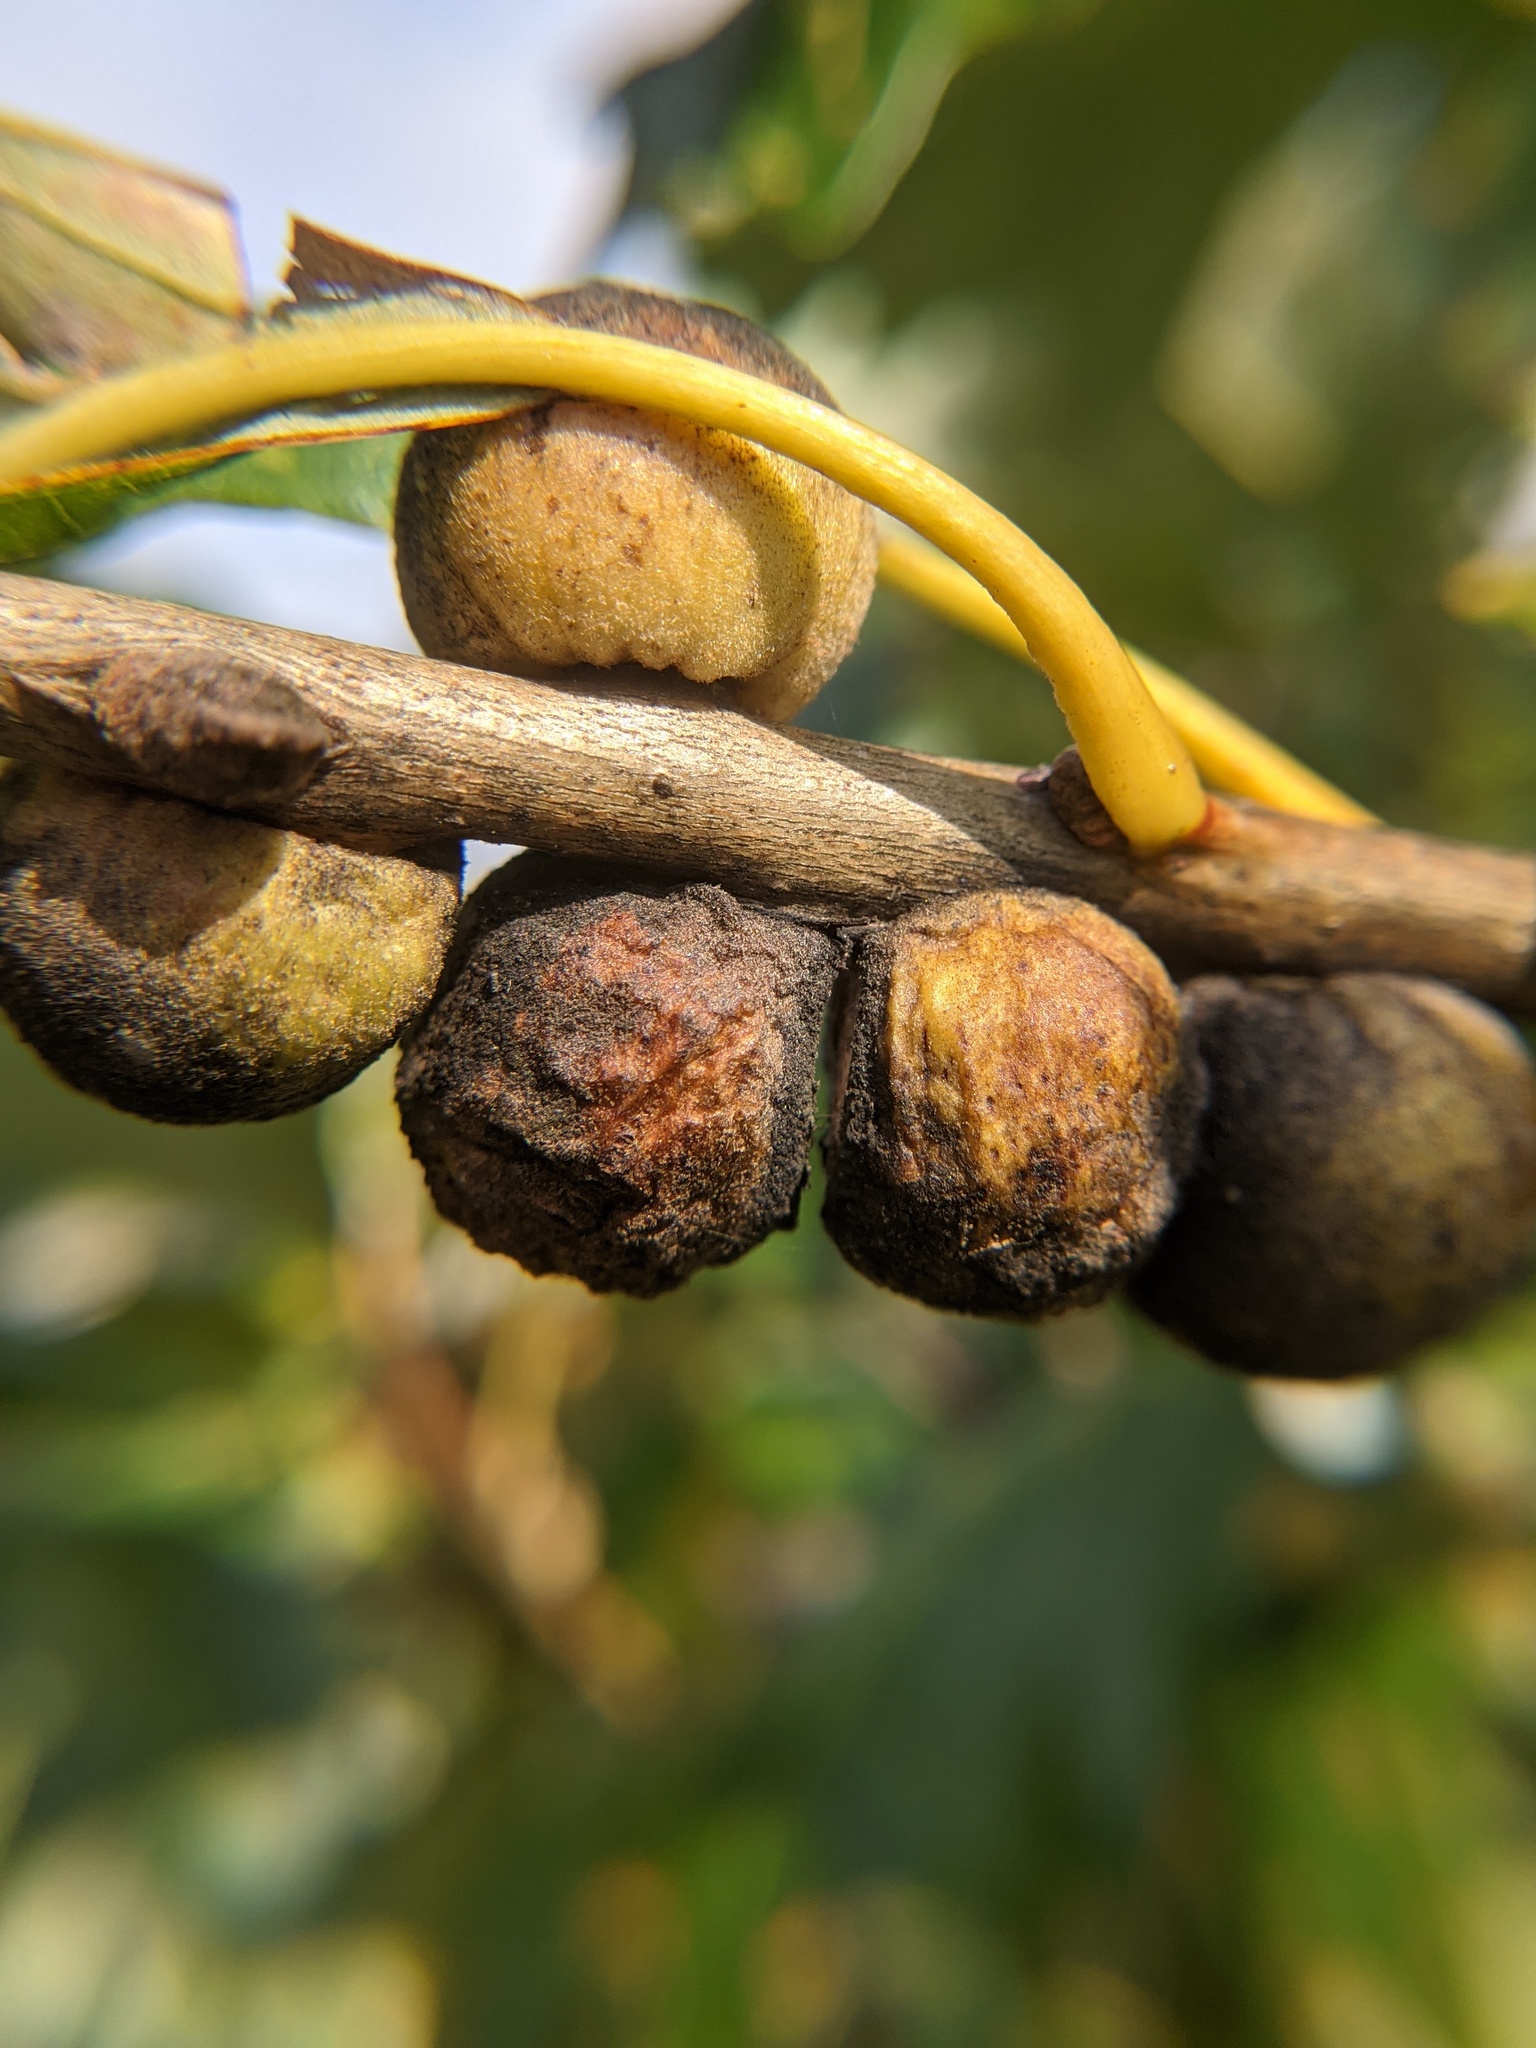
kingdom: Animalia
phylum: Arthropoda
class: Insecta
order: Hymenoptera
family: Cynipidae
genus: Disholcaspis
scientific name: Disholcaspis
